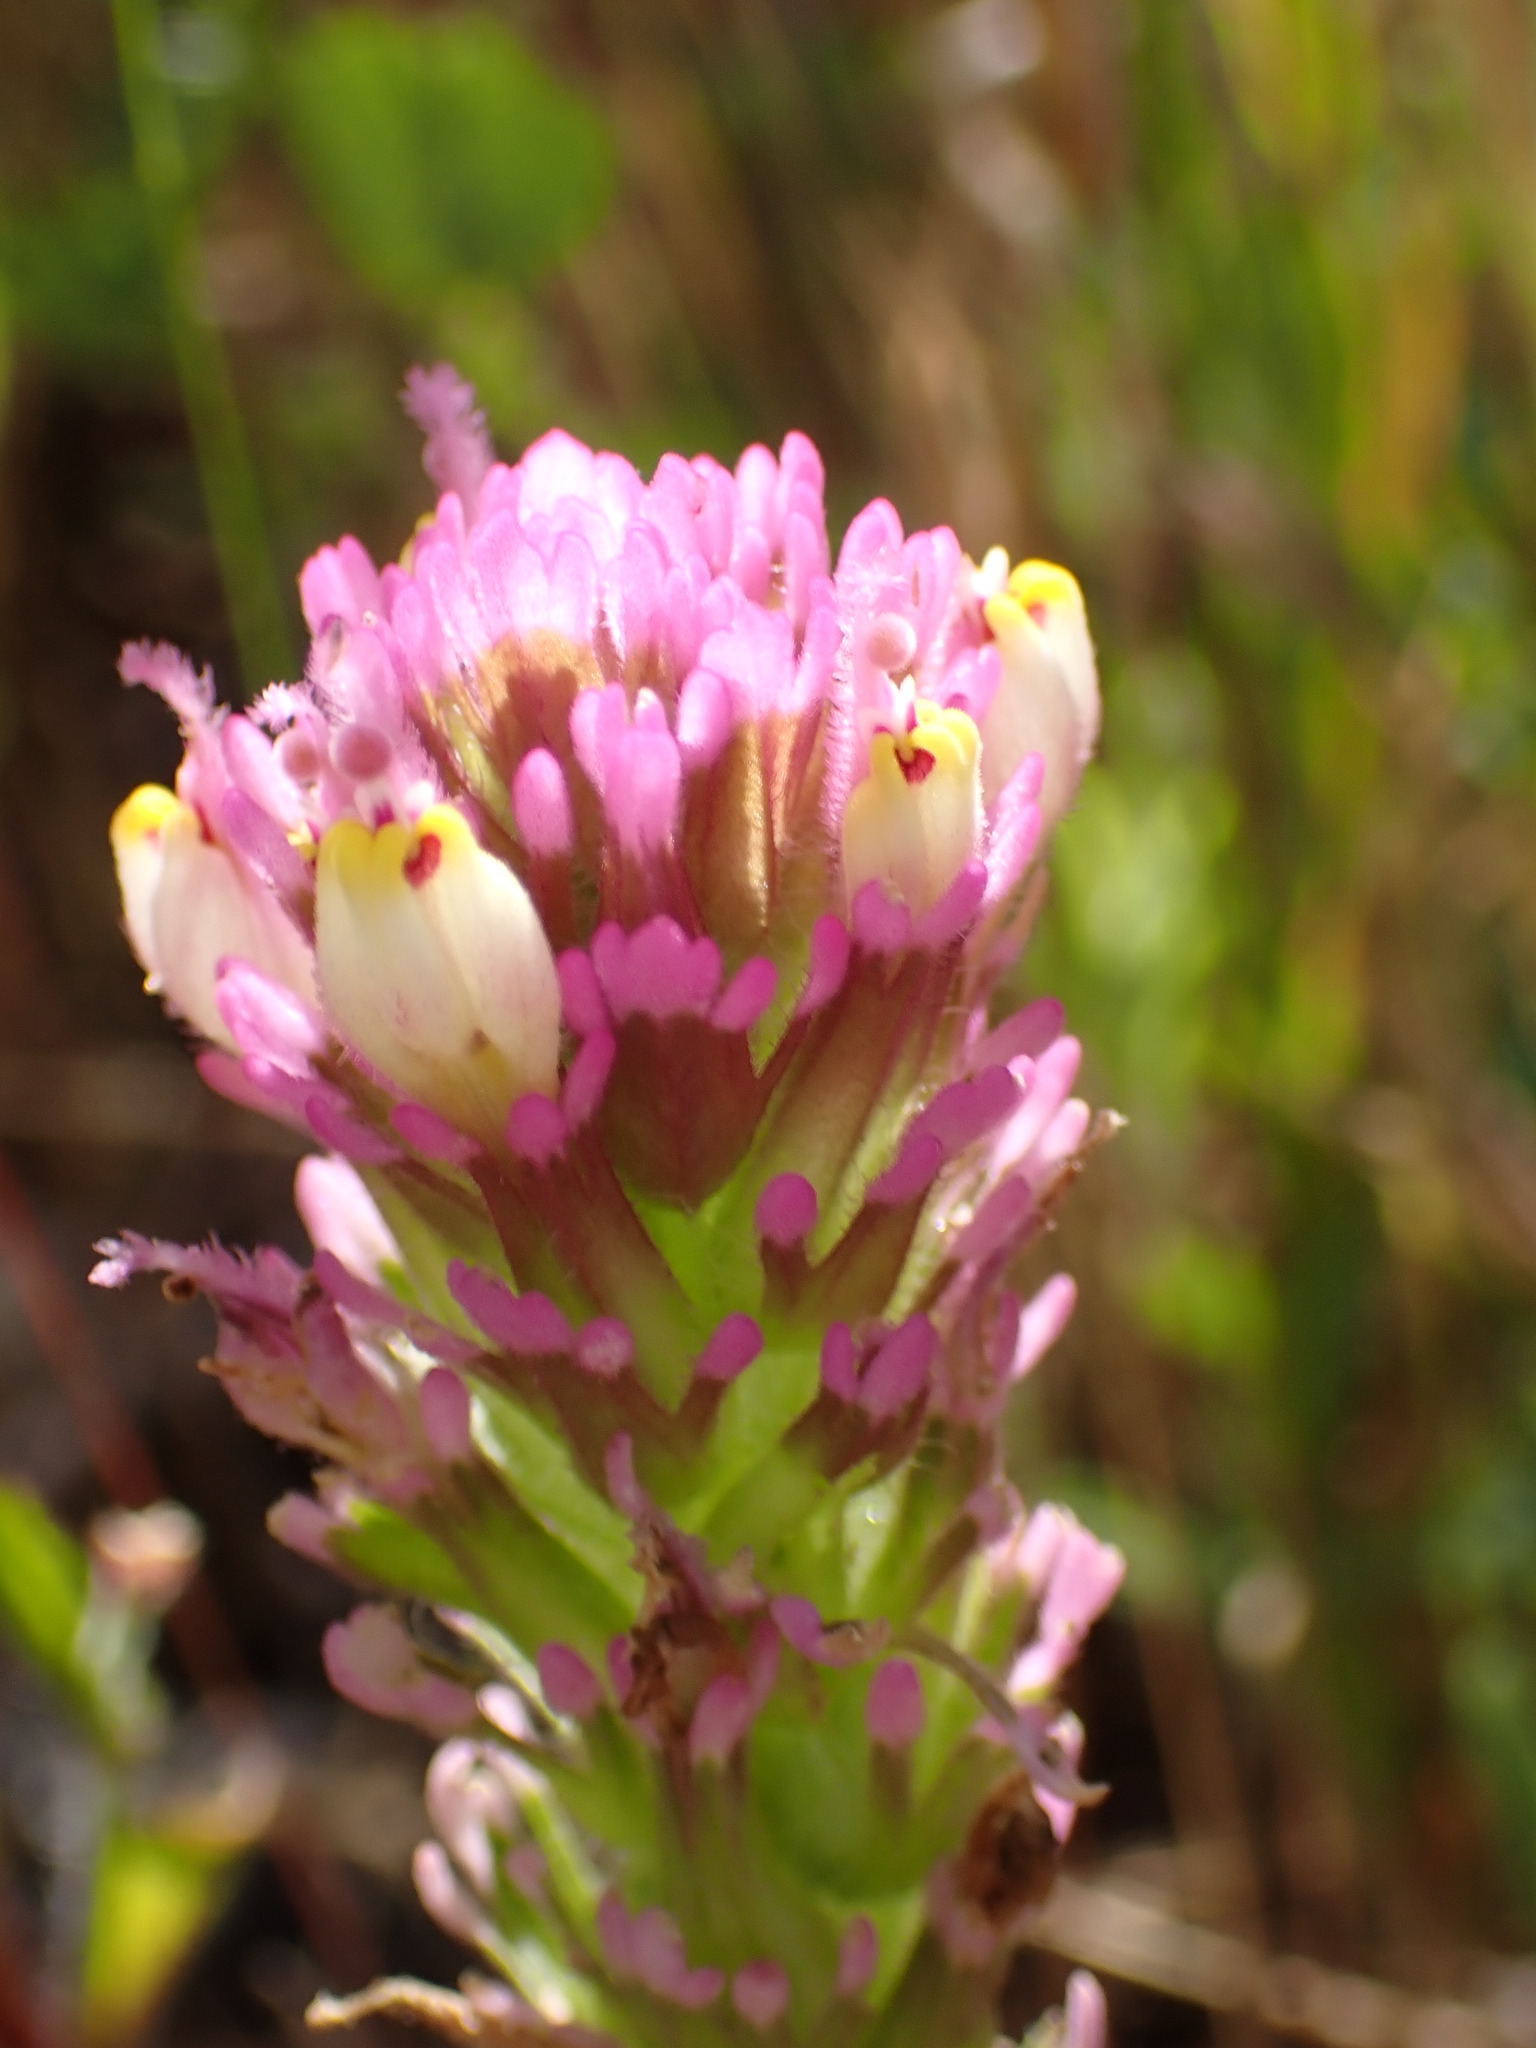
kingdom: Plantae
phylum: Tracheophyta
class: Magnoliopsida
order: Lamiales
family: Orobanchaceae
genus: Castilleja
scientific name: Castilleja exserta
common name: Purple owl-clover
